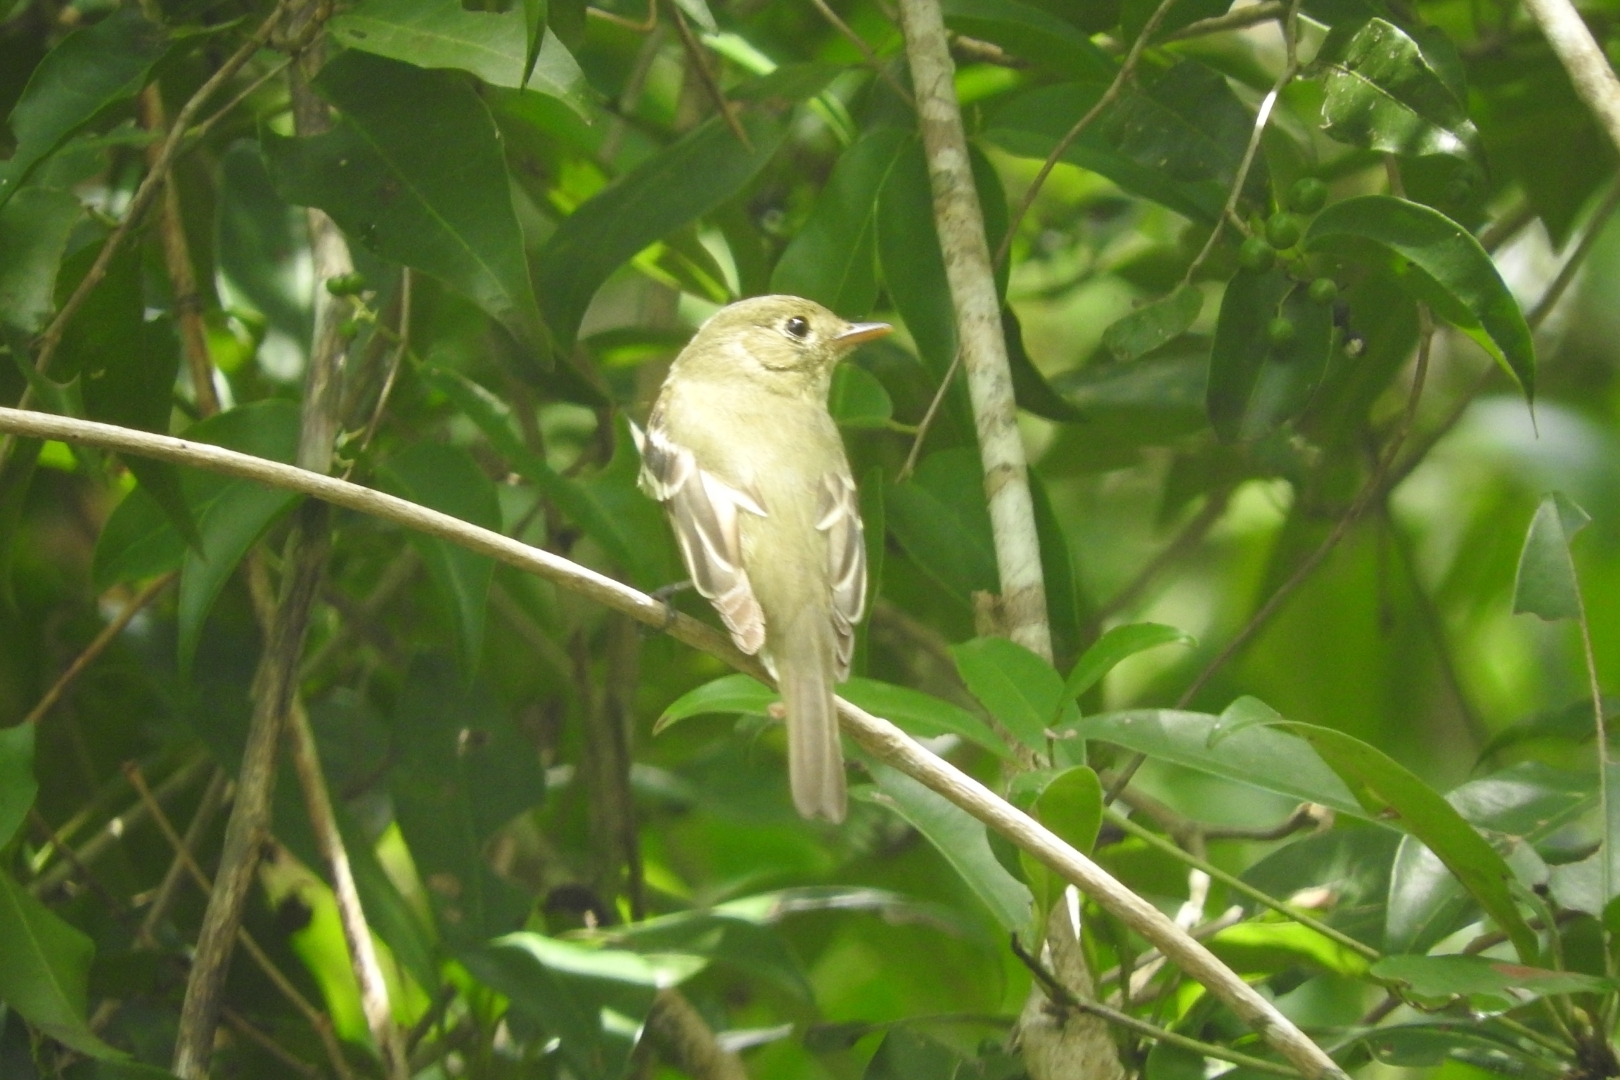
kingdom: Animalia
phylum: Chordata
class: Aves
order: Passeriformes
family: Tyrannidae
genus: Empidonax
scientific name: Empidonax flaviventris
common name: Yellow-bellied flycatcher
